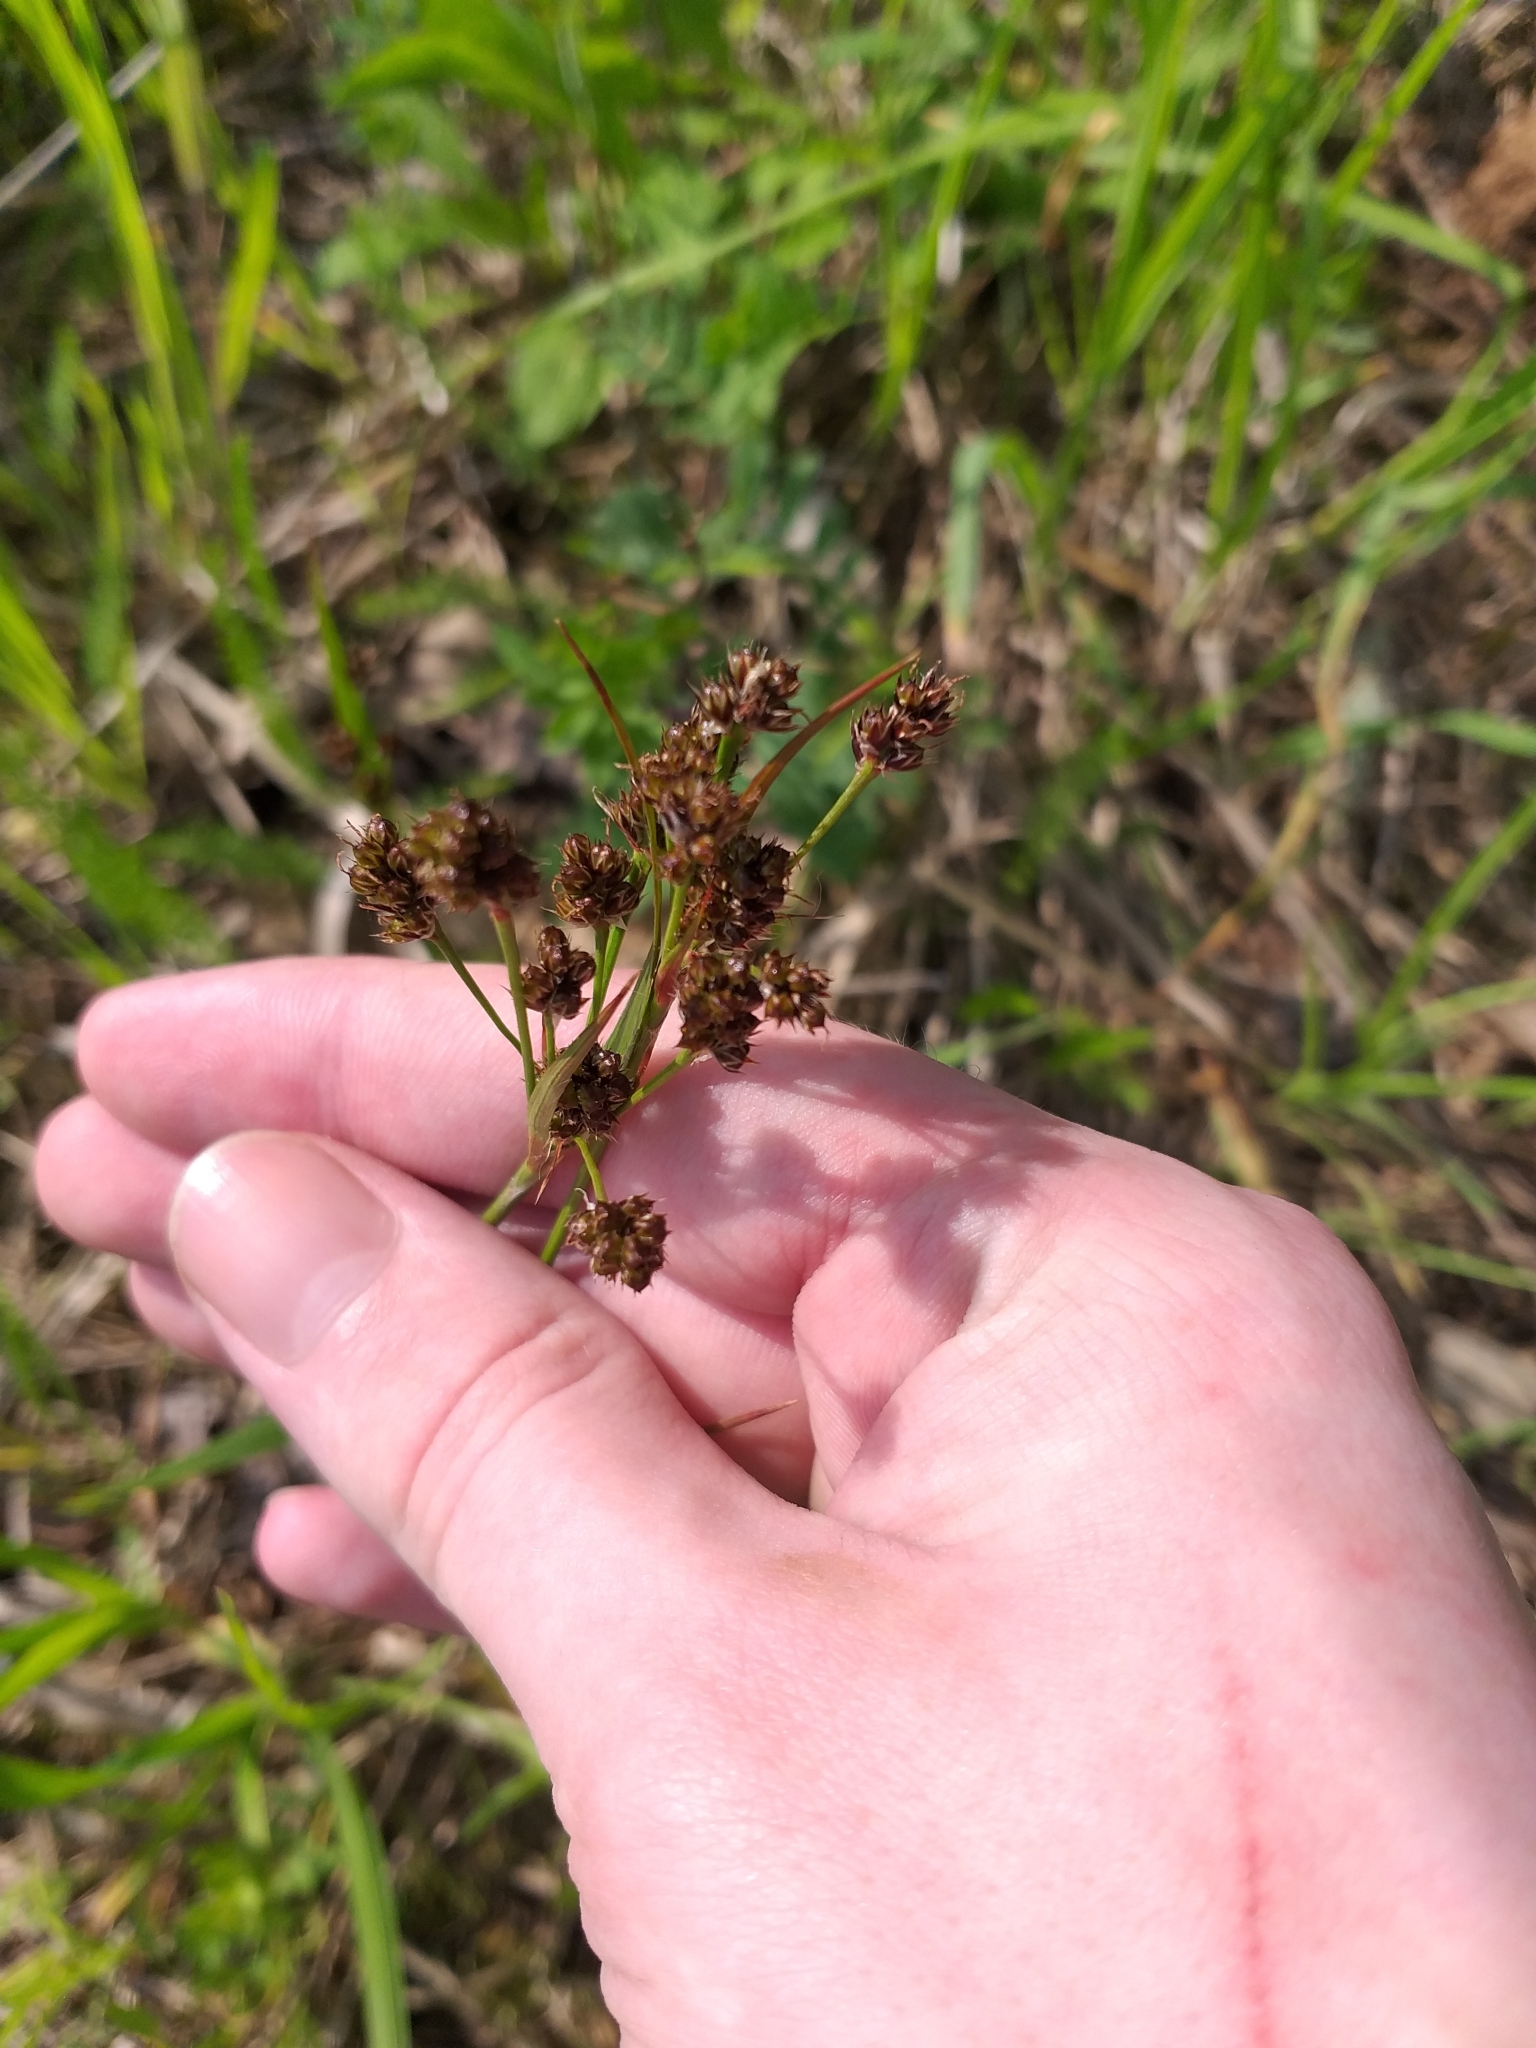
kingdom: Plantae
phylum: Tracheophyta
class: Liliopsida
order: Poales
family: Juncaceae
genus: Luzula
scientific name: Luzula multiflora
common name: Heath wood-rush
